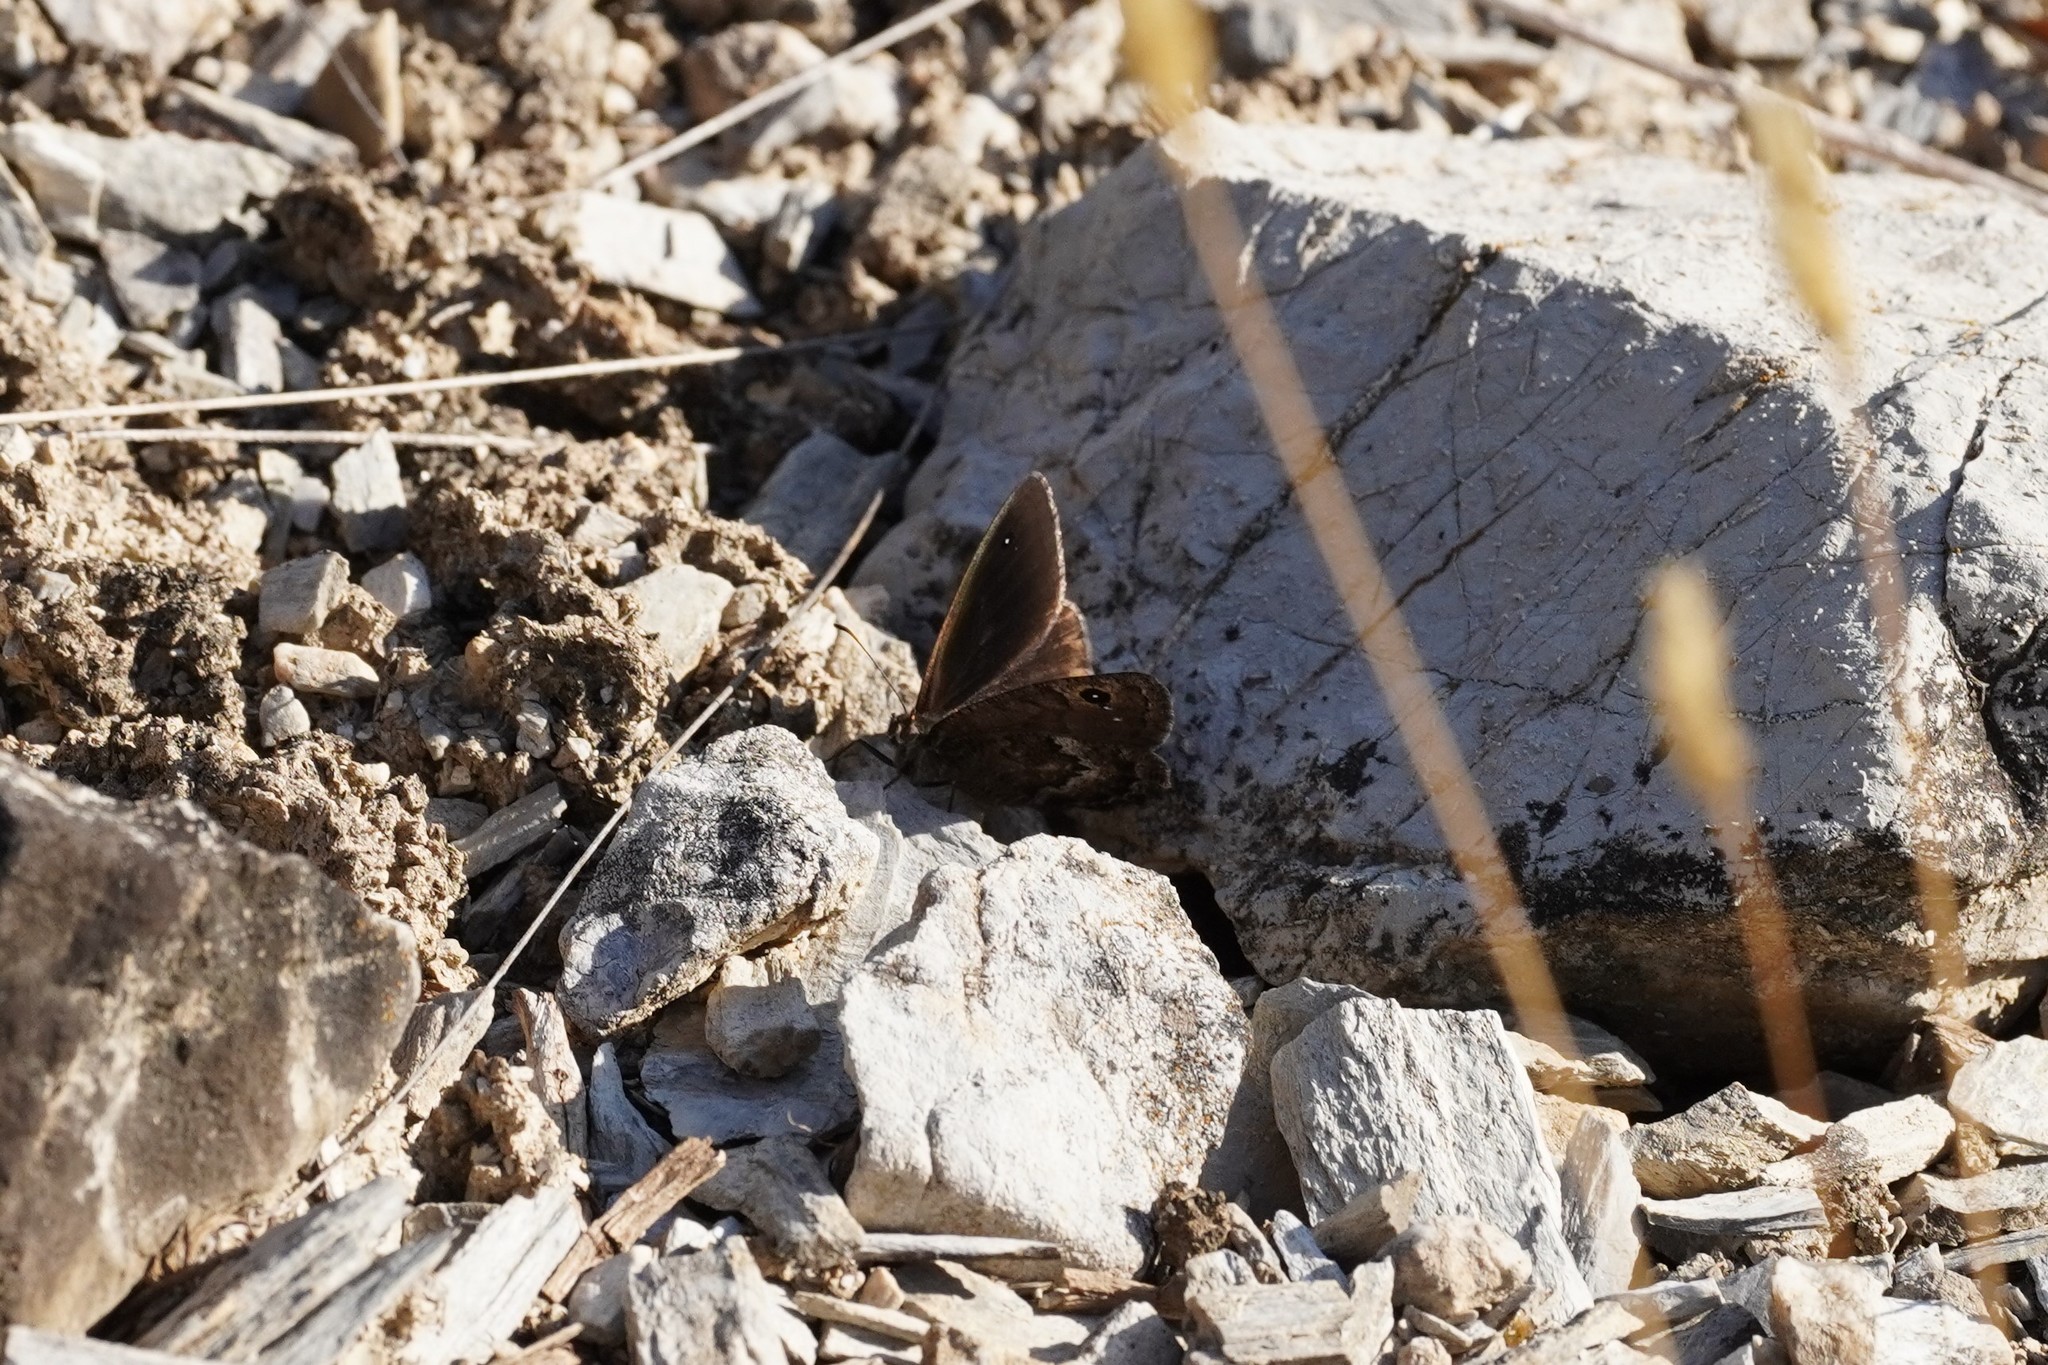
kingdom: Animalia
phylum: Arthropoda
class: Insecta
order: Lepidoptera
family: Nymphalidae
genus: Satyrus
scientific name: Satyrus actaea
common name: Black satyr
